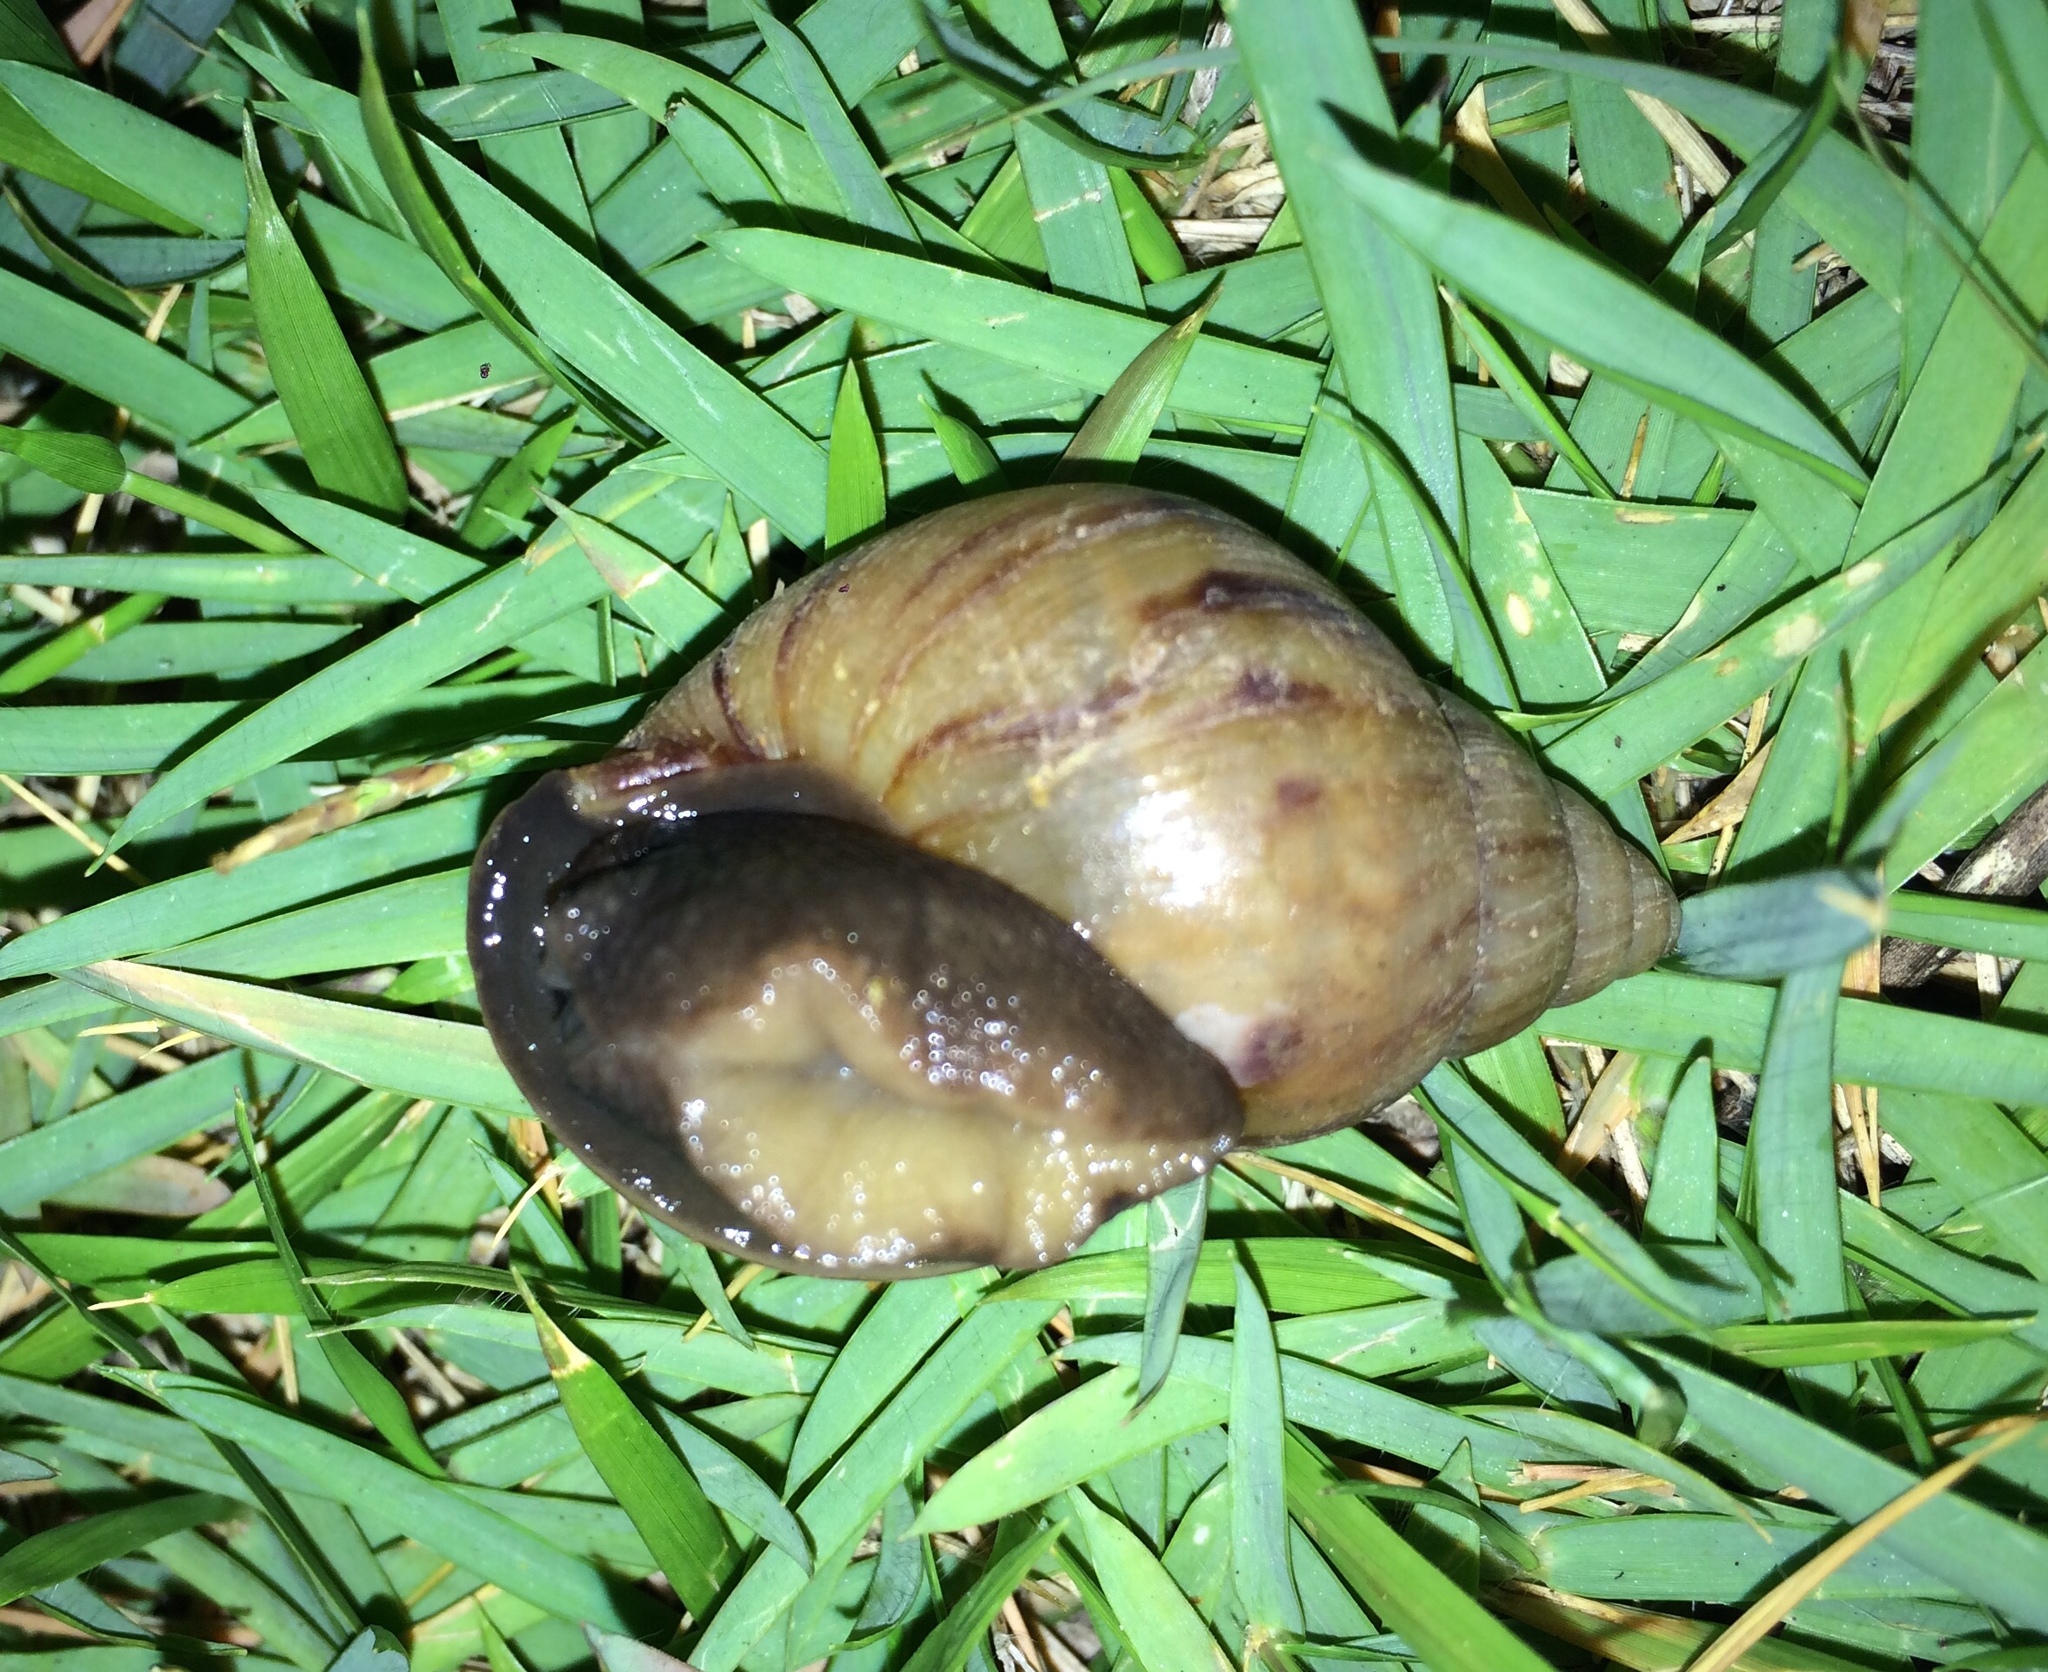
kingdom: Animalia
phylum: Mollusca
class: Gastropoda
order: Stylommatophora
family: Achatinidae
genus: Lissachatina
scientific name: Lissachatina fulica
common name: Giant african snail
